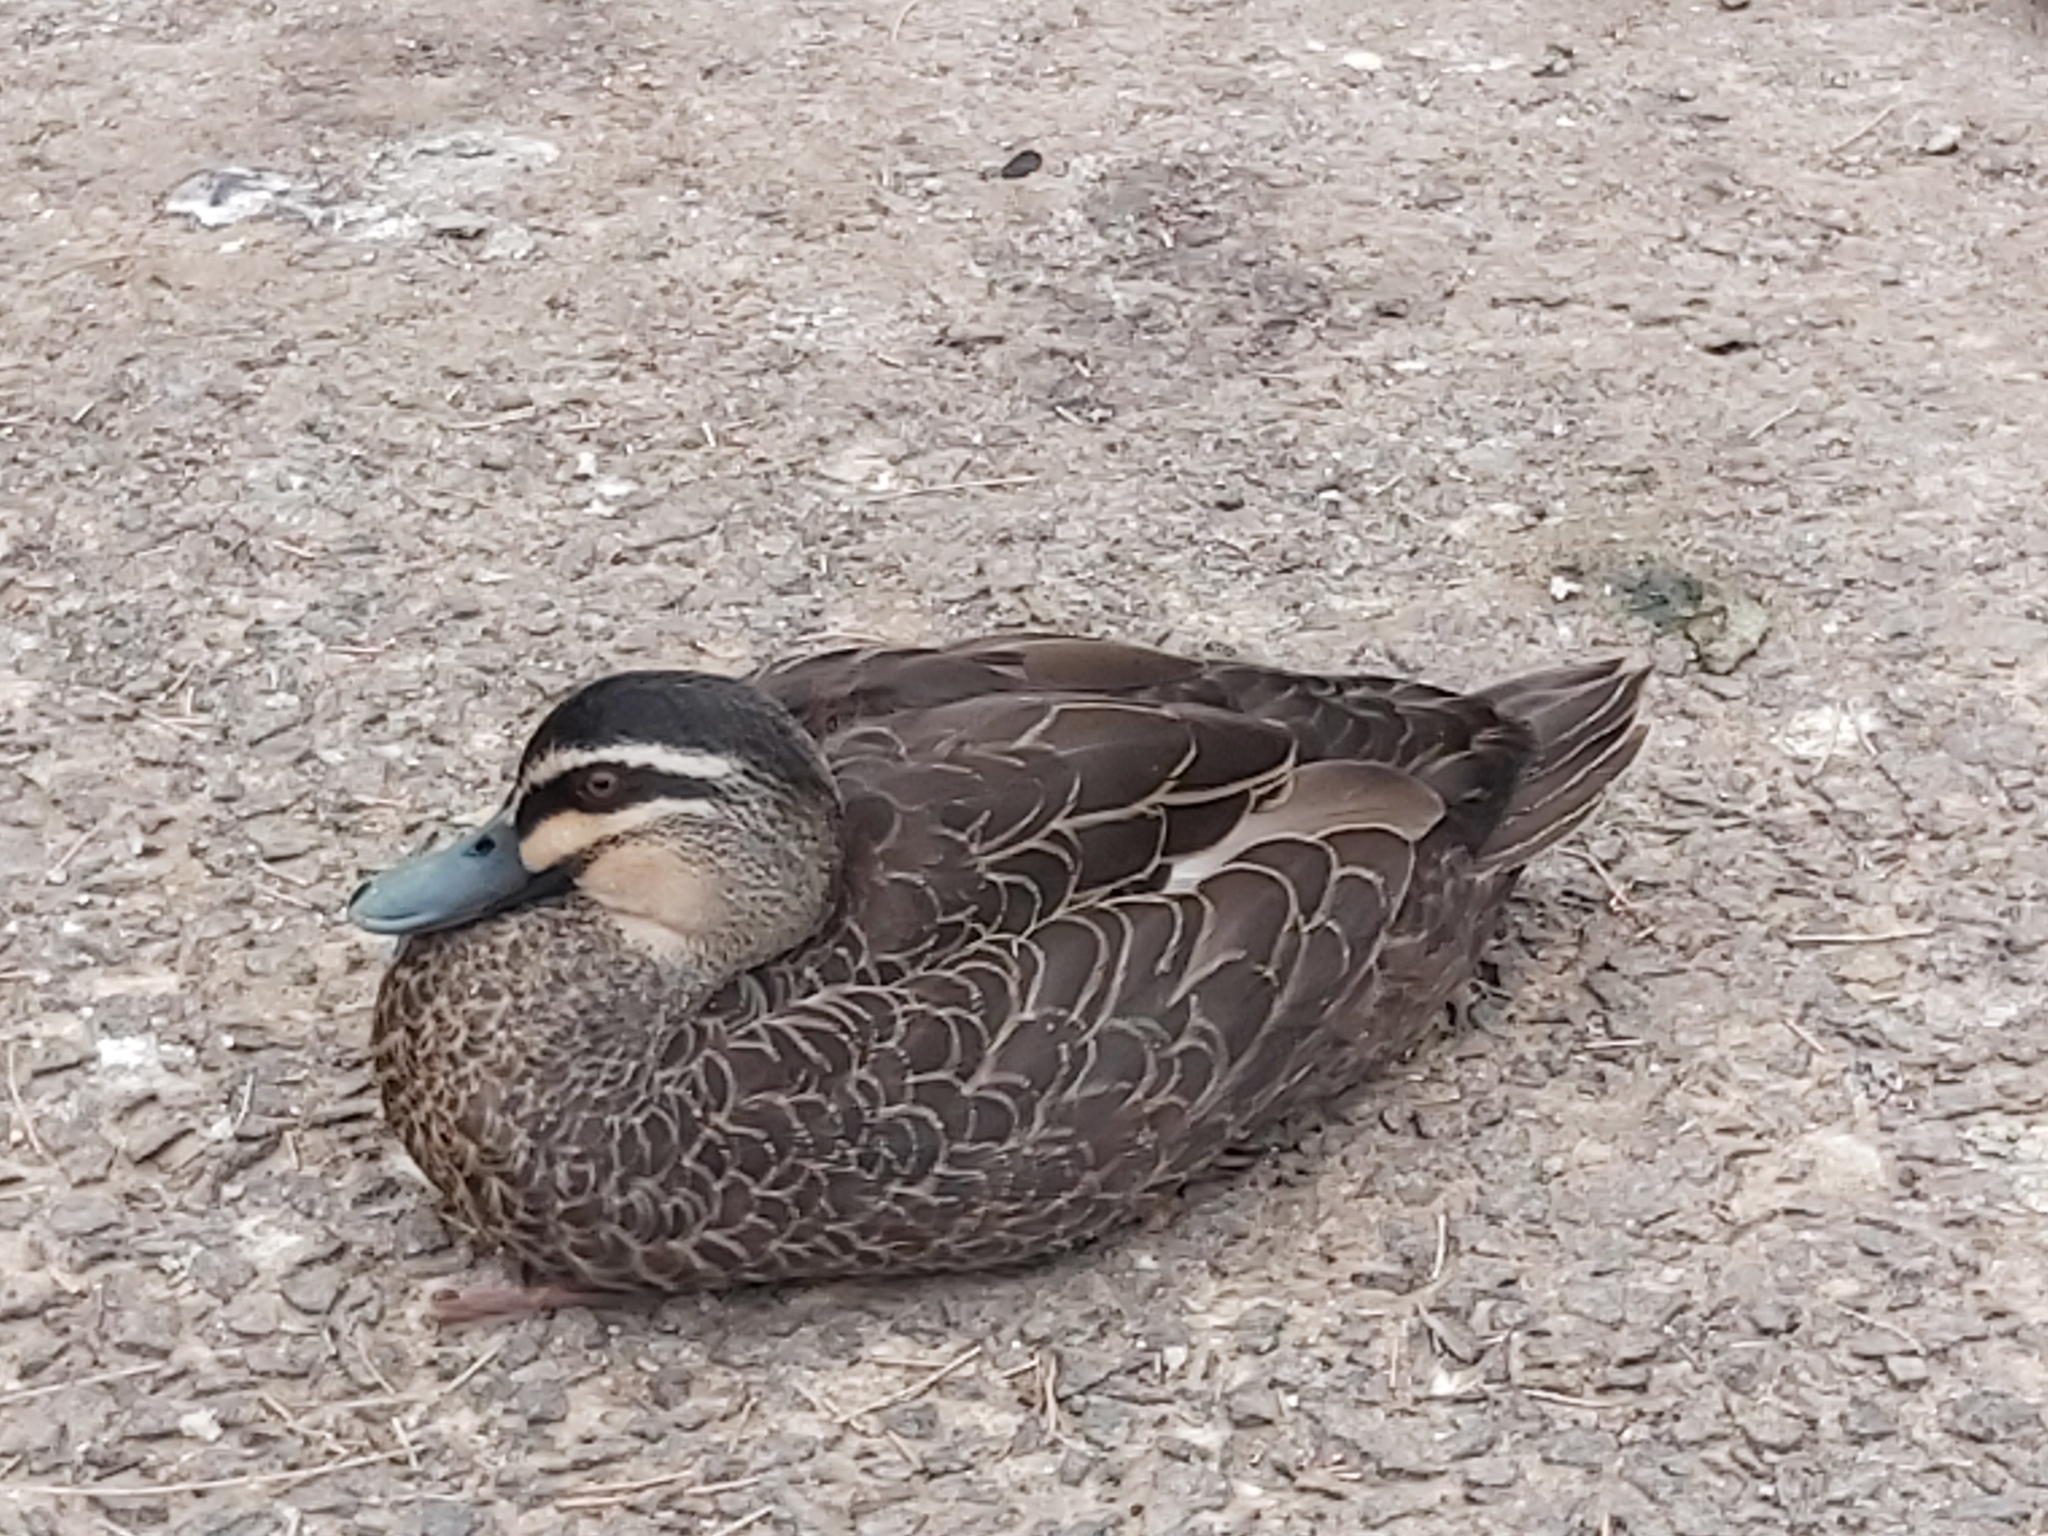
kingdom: Animalia
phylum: Chordata
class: Aves
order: Anseriformes
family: Anatidae
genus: Anas
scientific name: Anas superciliosa
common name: Pacific black duck
